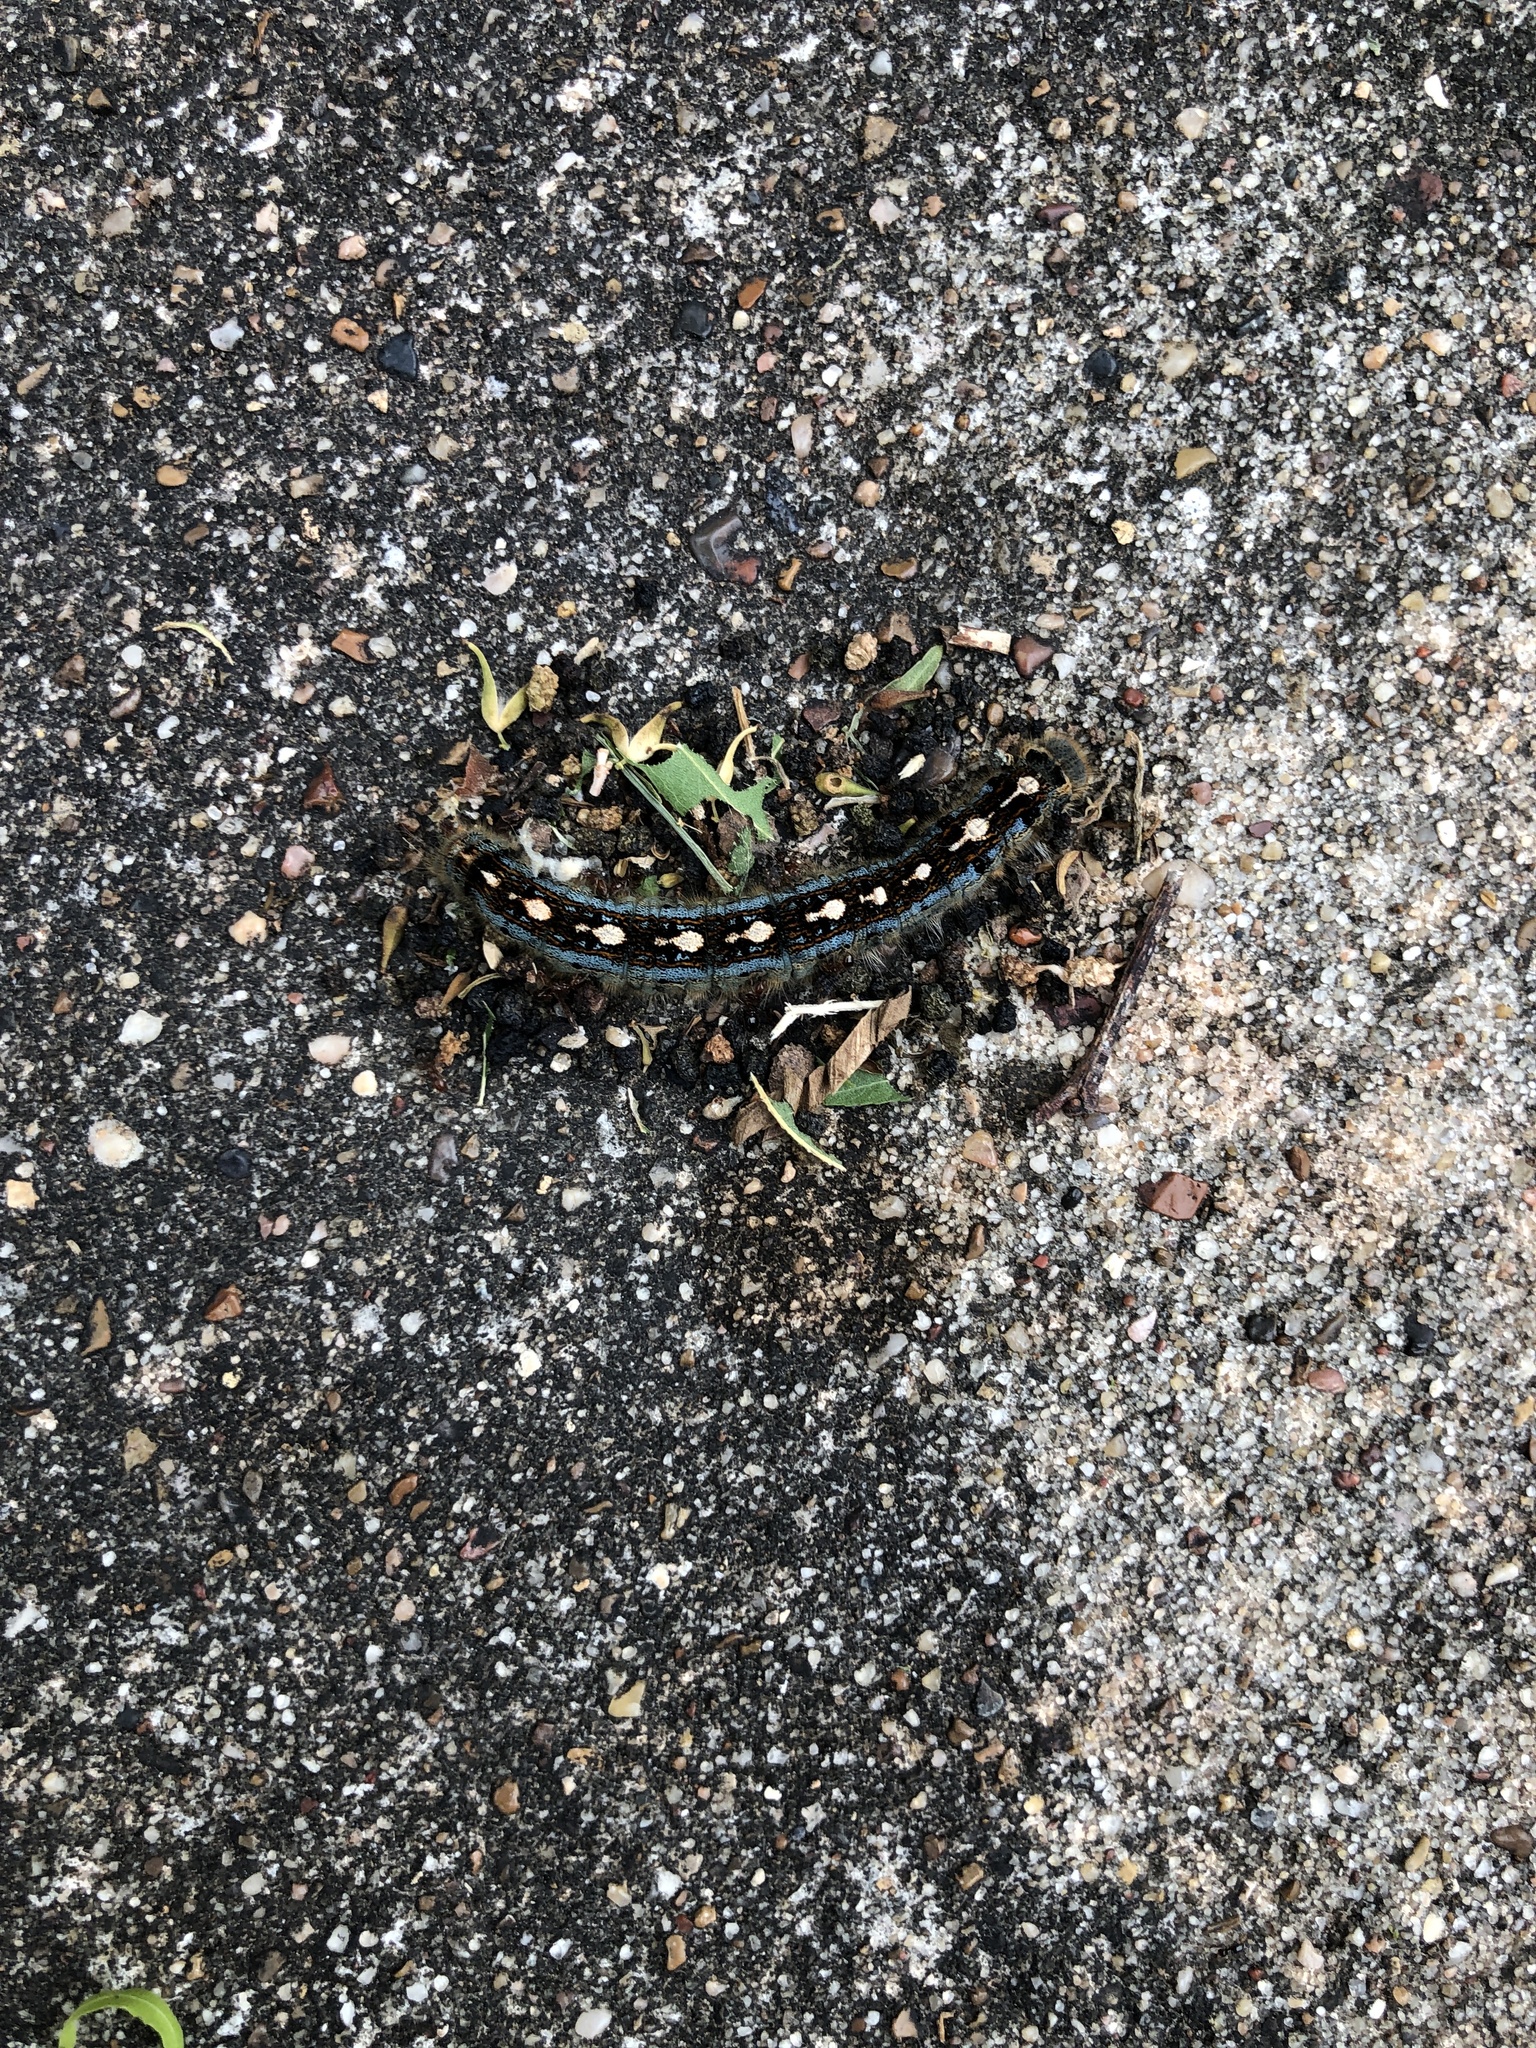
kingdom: Animalia
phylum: Arthropoda
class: Insecta
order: Lepidoptera
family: Lasiocampidae
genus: Malacosoma
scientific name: Malacosoma disstria
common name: Forest tent caterpillar
